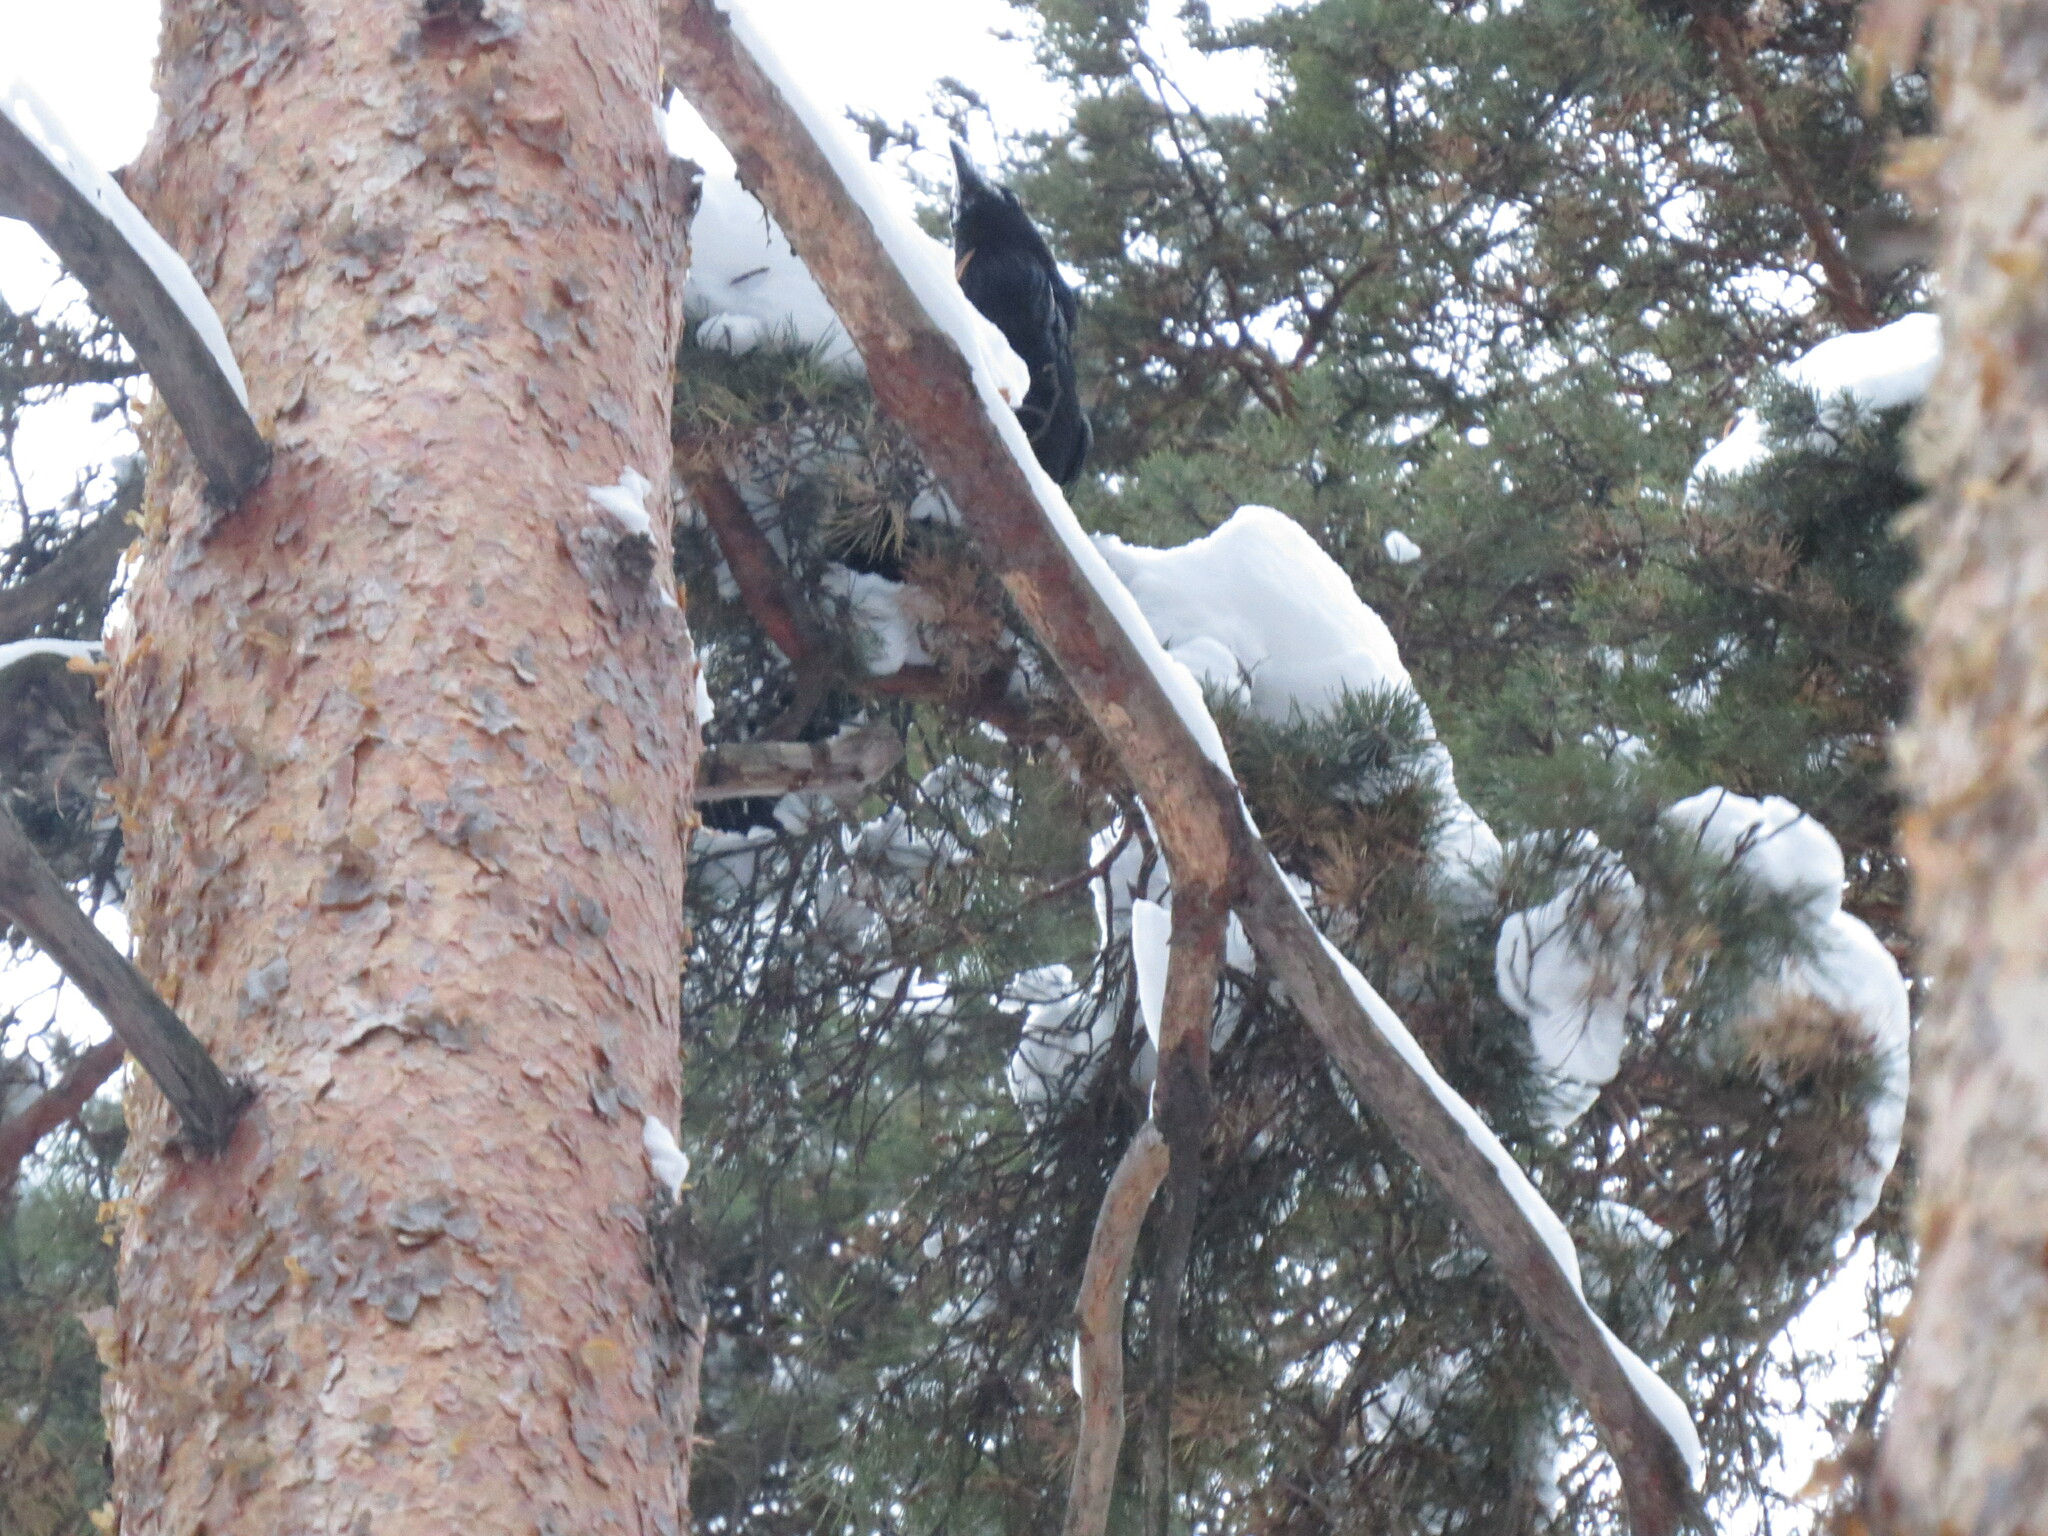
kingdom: Animalia
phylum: Chordata
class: Aves
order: Passeriformes
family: Corvidae
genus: Corvus
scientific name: Corvus corax
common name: Common raven
